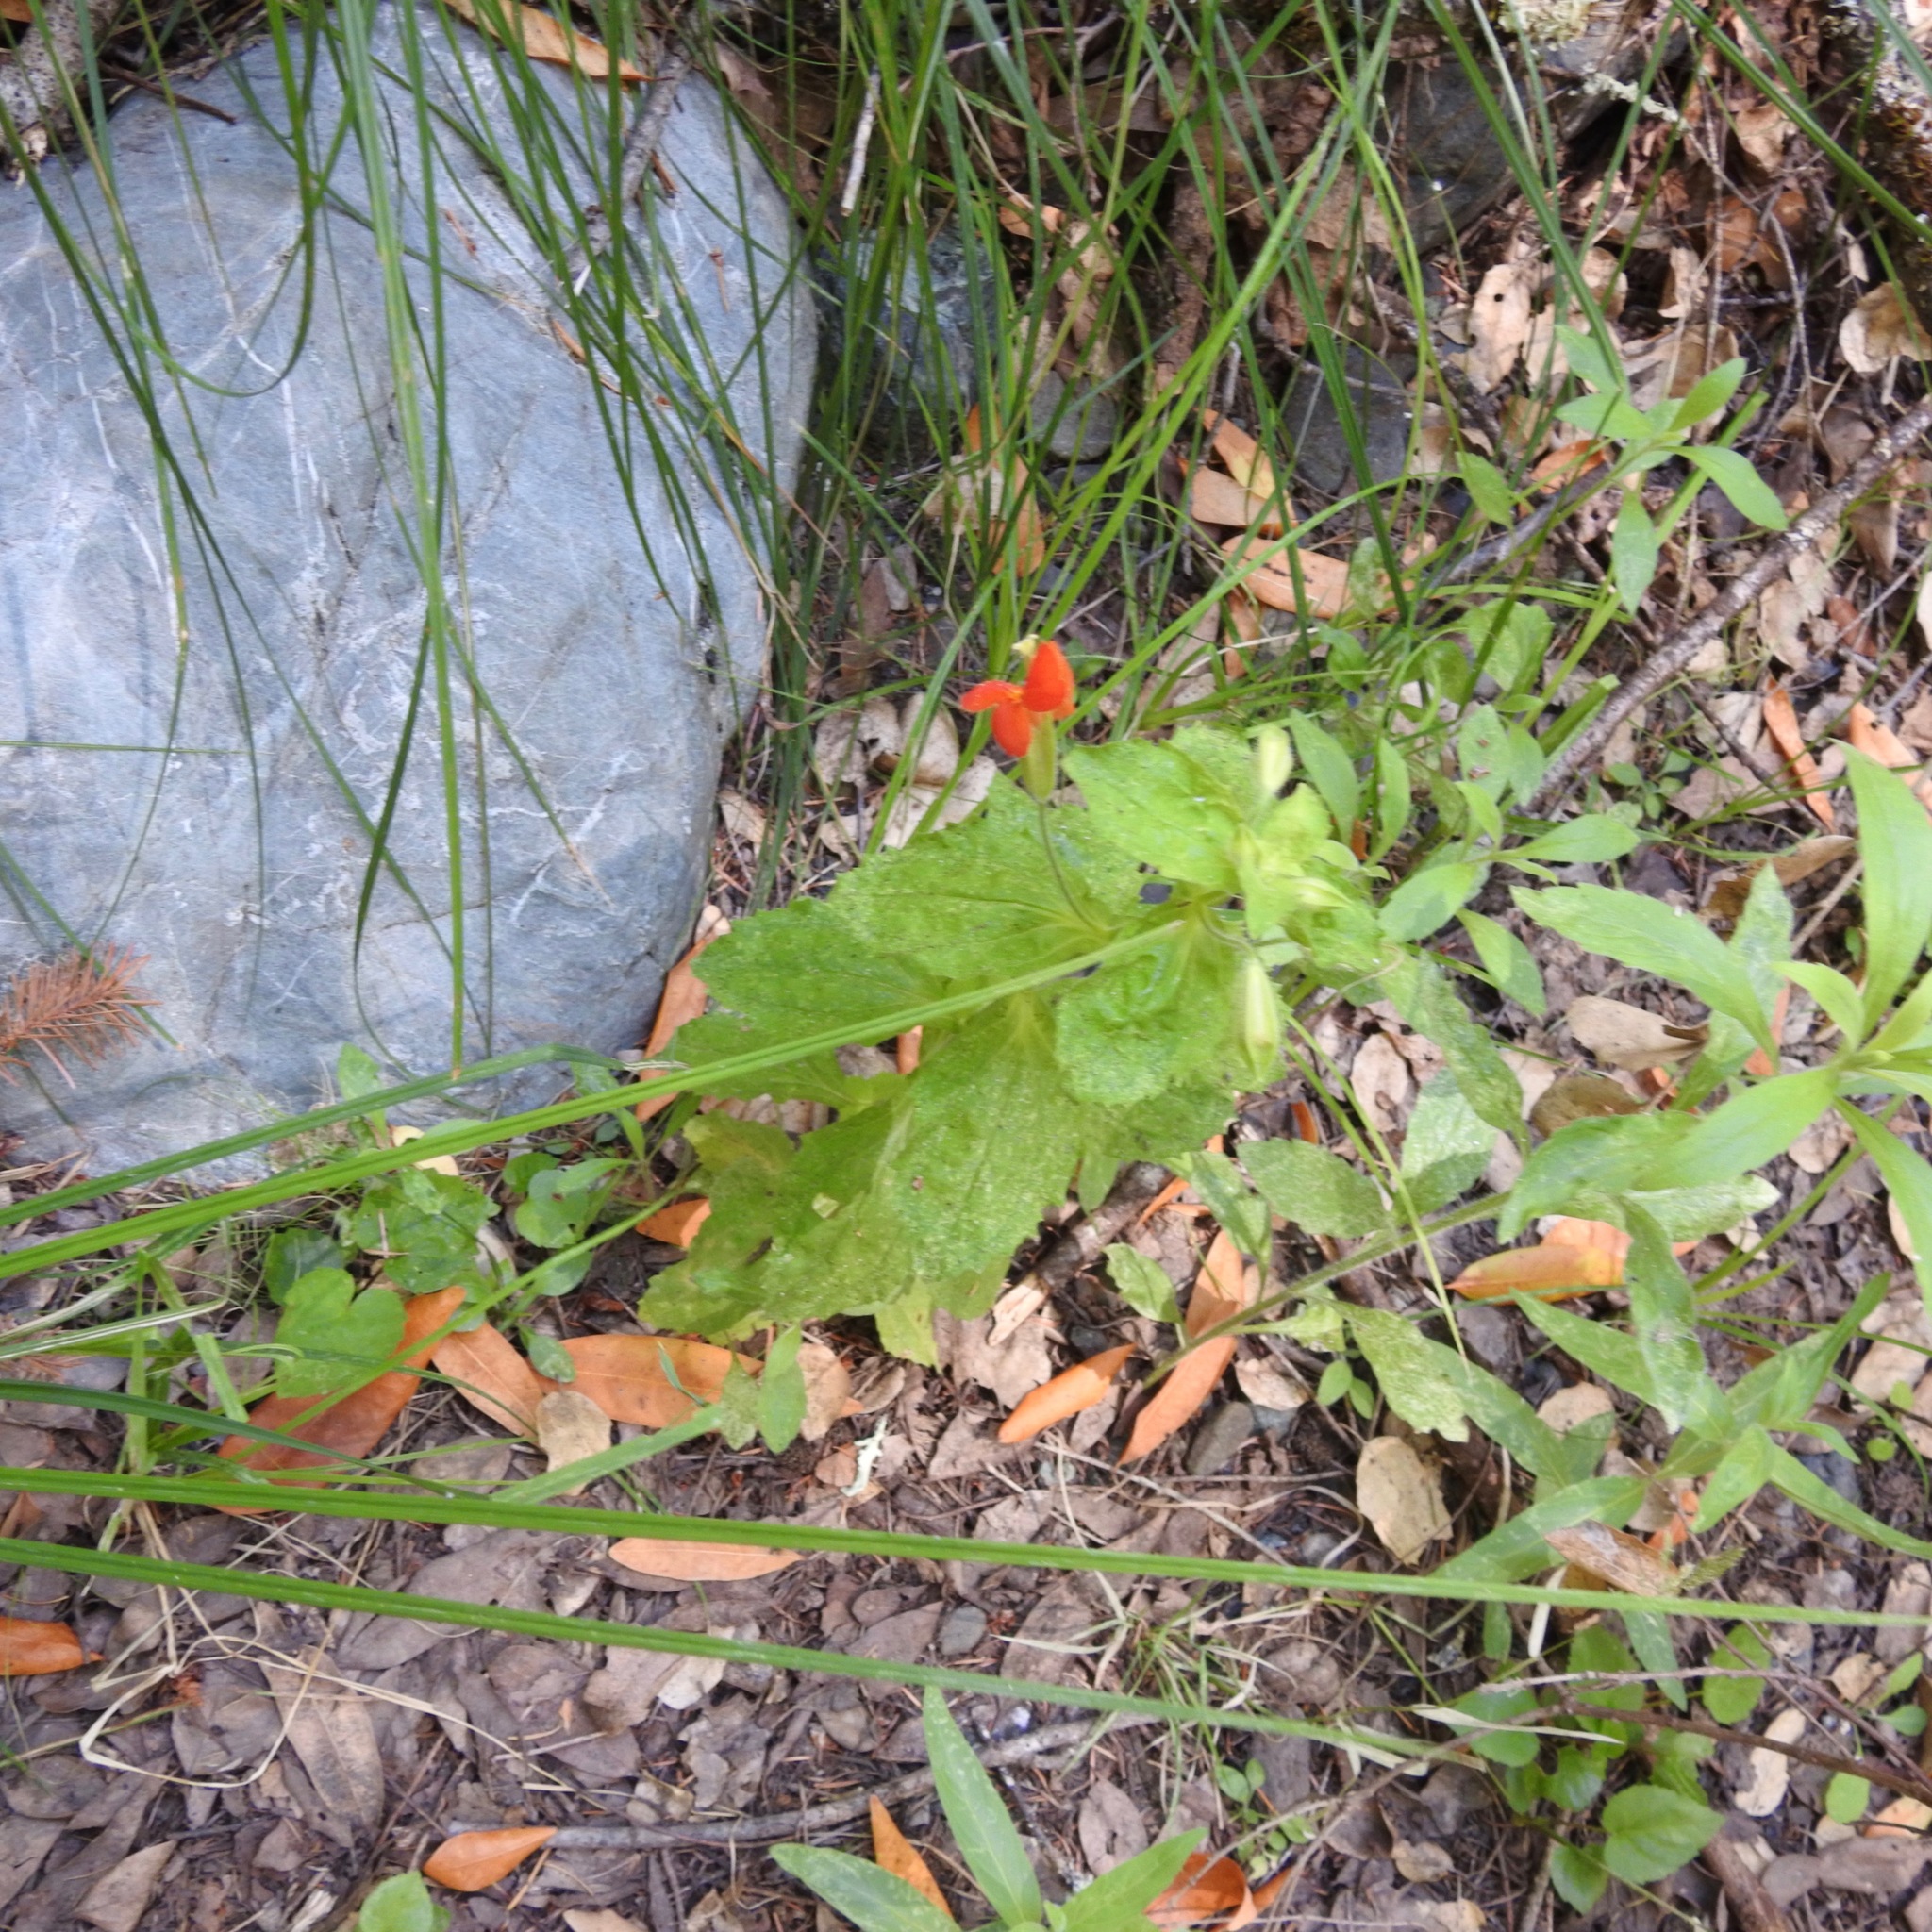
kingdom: Plantae
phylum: Tracheophyta
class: Magnoliopsida
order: Lamiales
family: Phrymaceae
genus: Erythranthe
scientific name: Erythranthe cardinalis
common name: Scarlet monkey-flower
